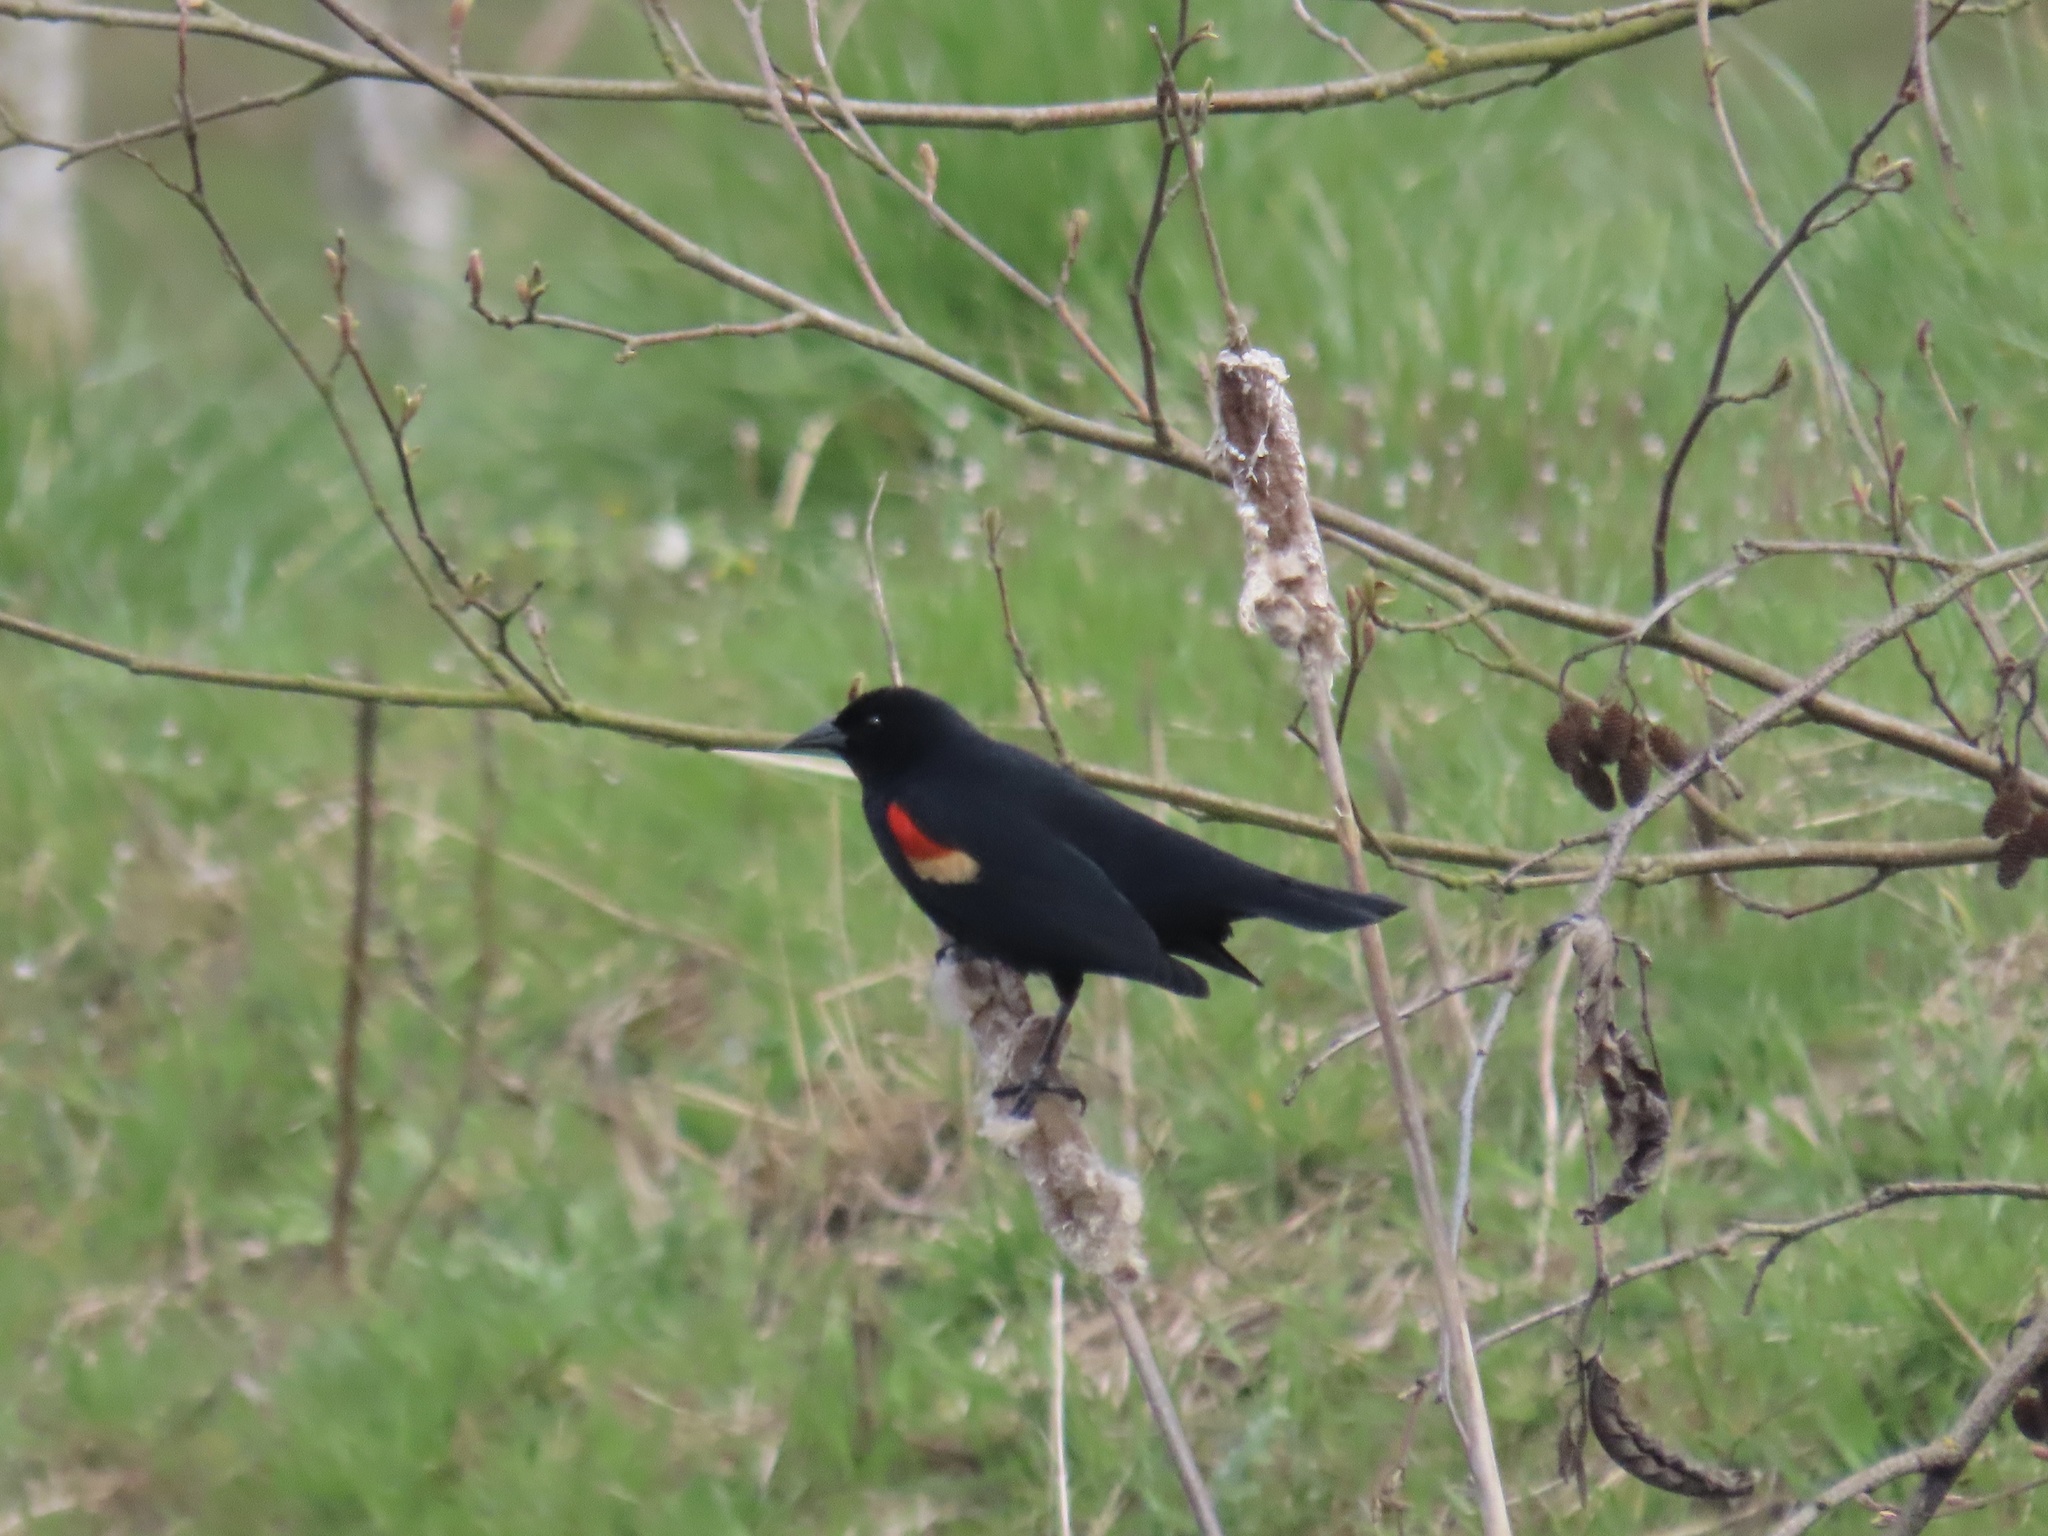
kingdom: Animalia
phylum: Chordata
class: Aves
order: Passeriformes
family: Icteridae
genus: Agelaius
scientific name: Agelaius phoeniceus
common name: Red-winged blackbird
